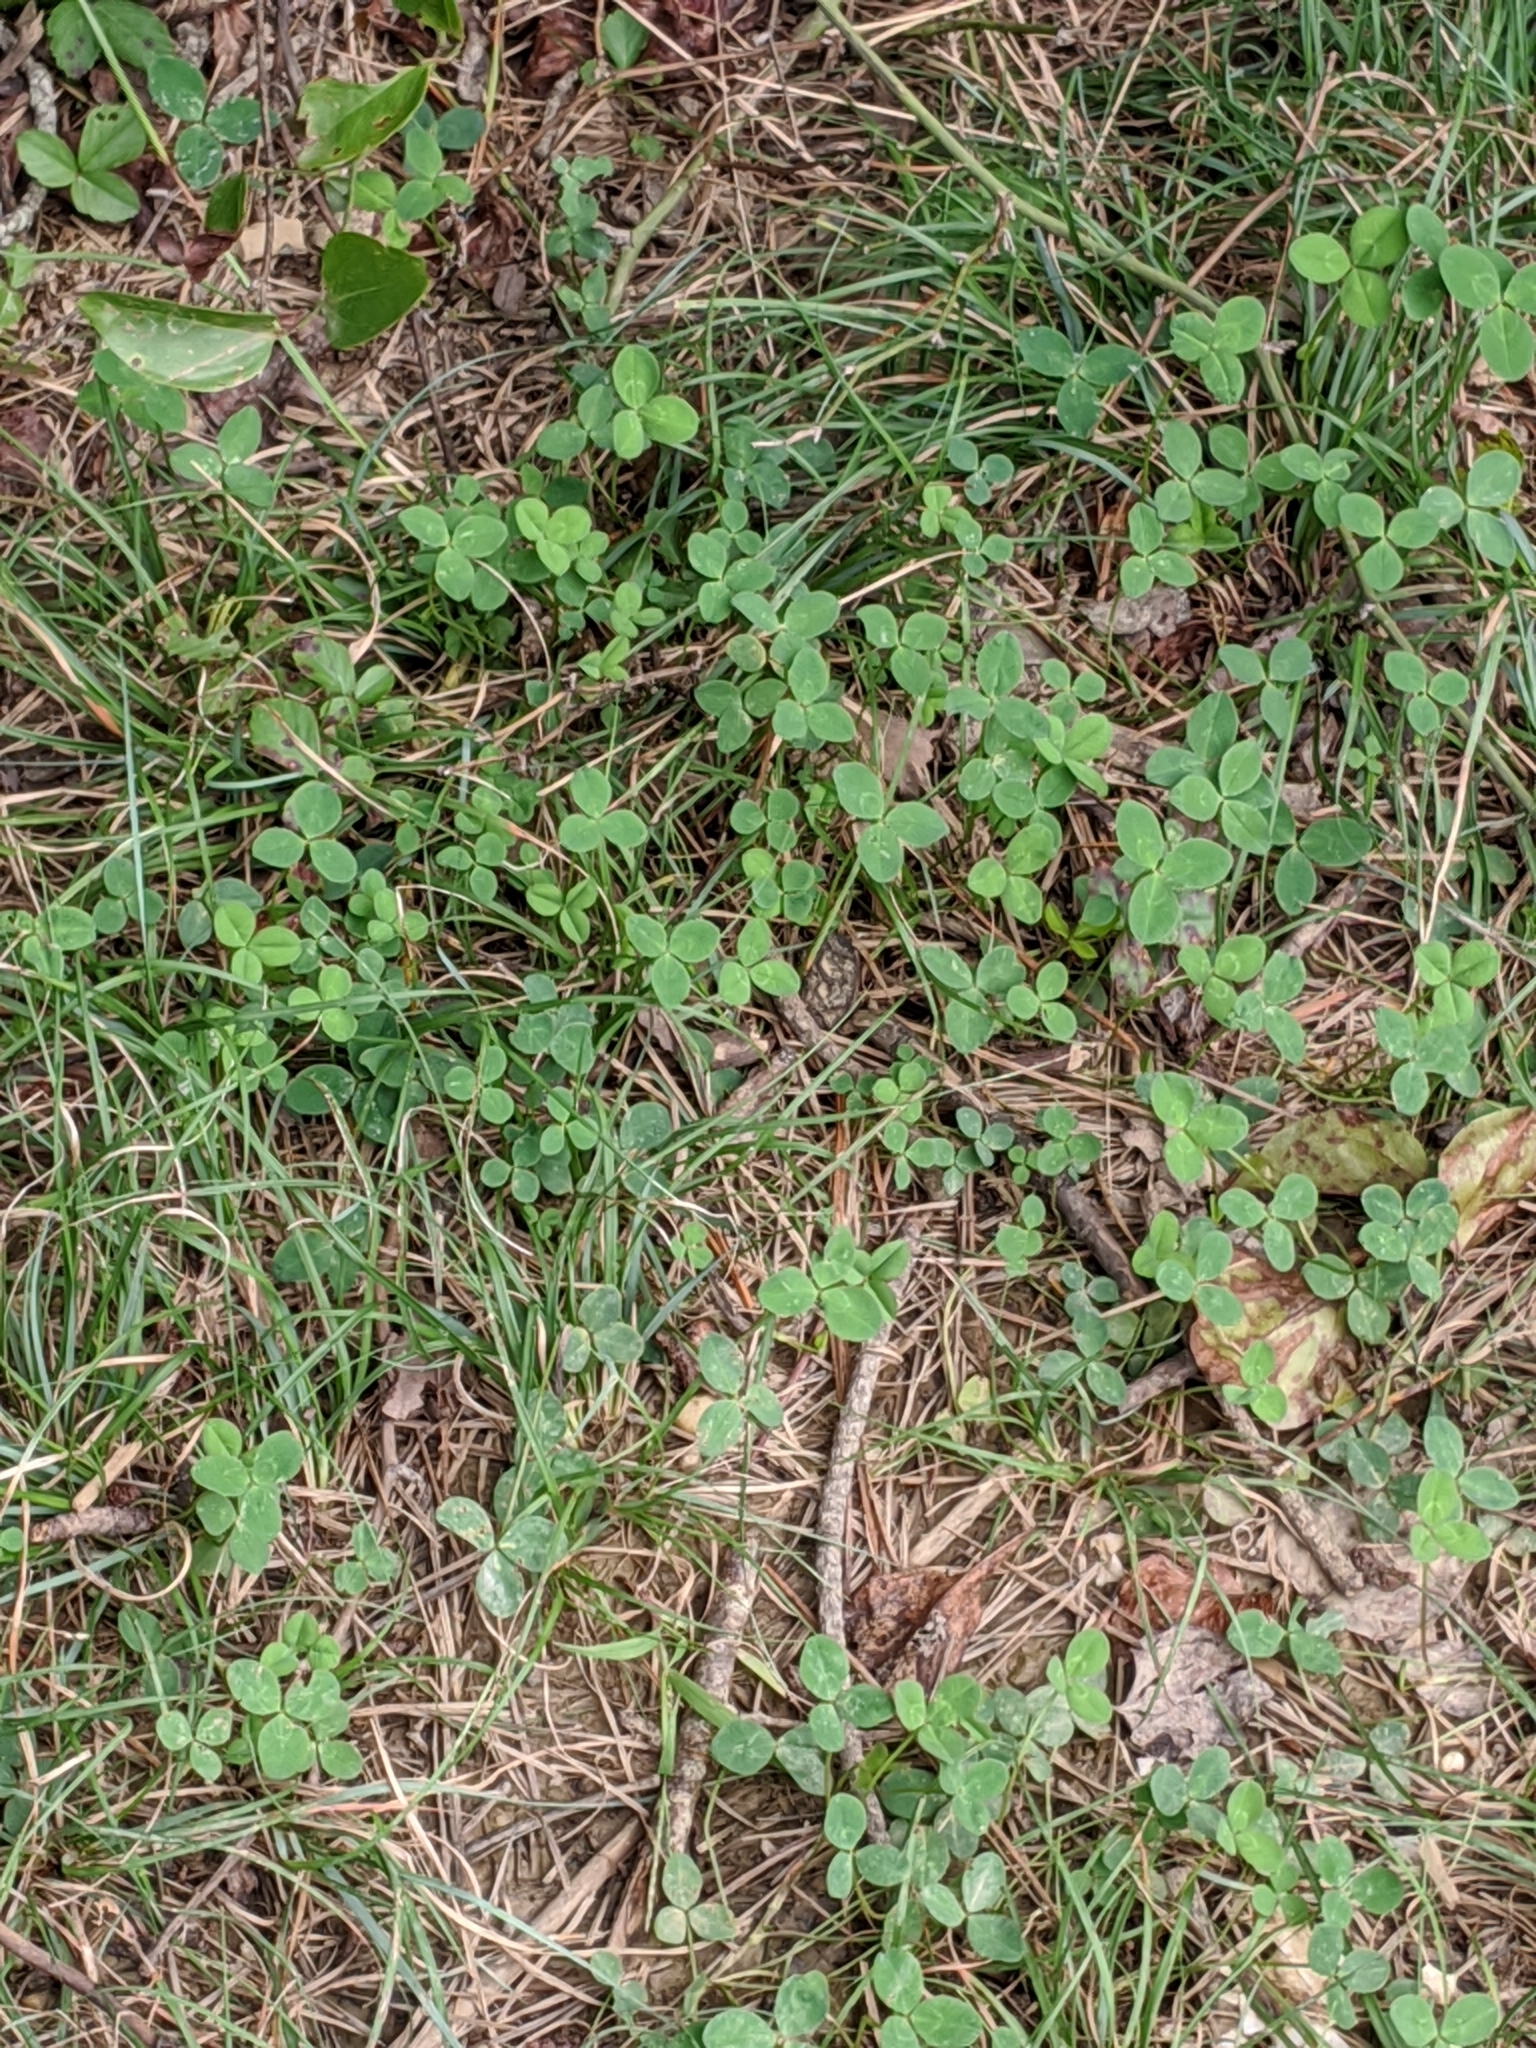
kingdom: Plantae
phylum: Tracheophyta
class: Magnoliopsida
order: Fabales
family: Fabaceae
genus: Trifolium
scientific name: Trifolium repens
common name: White clover
